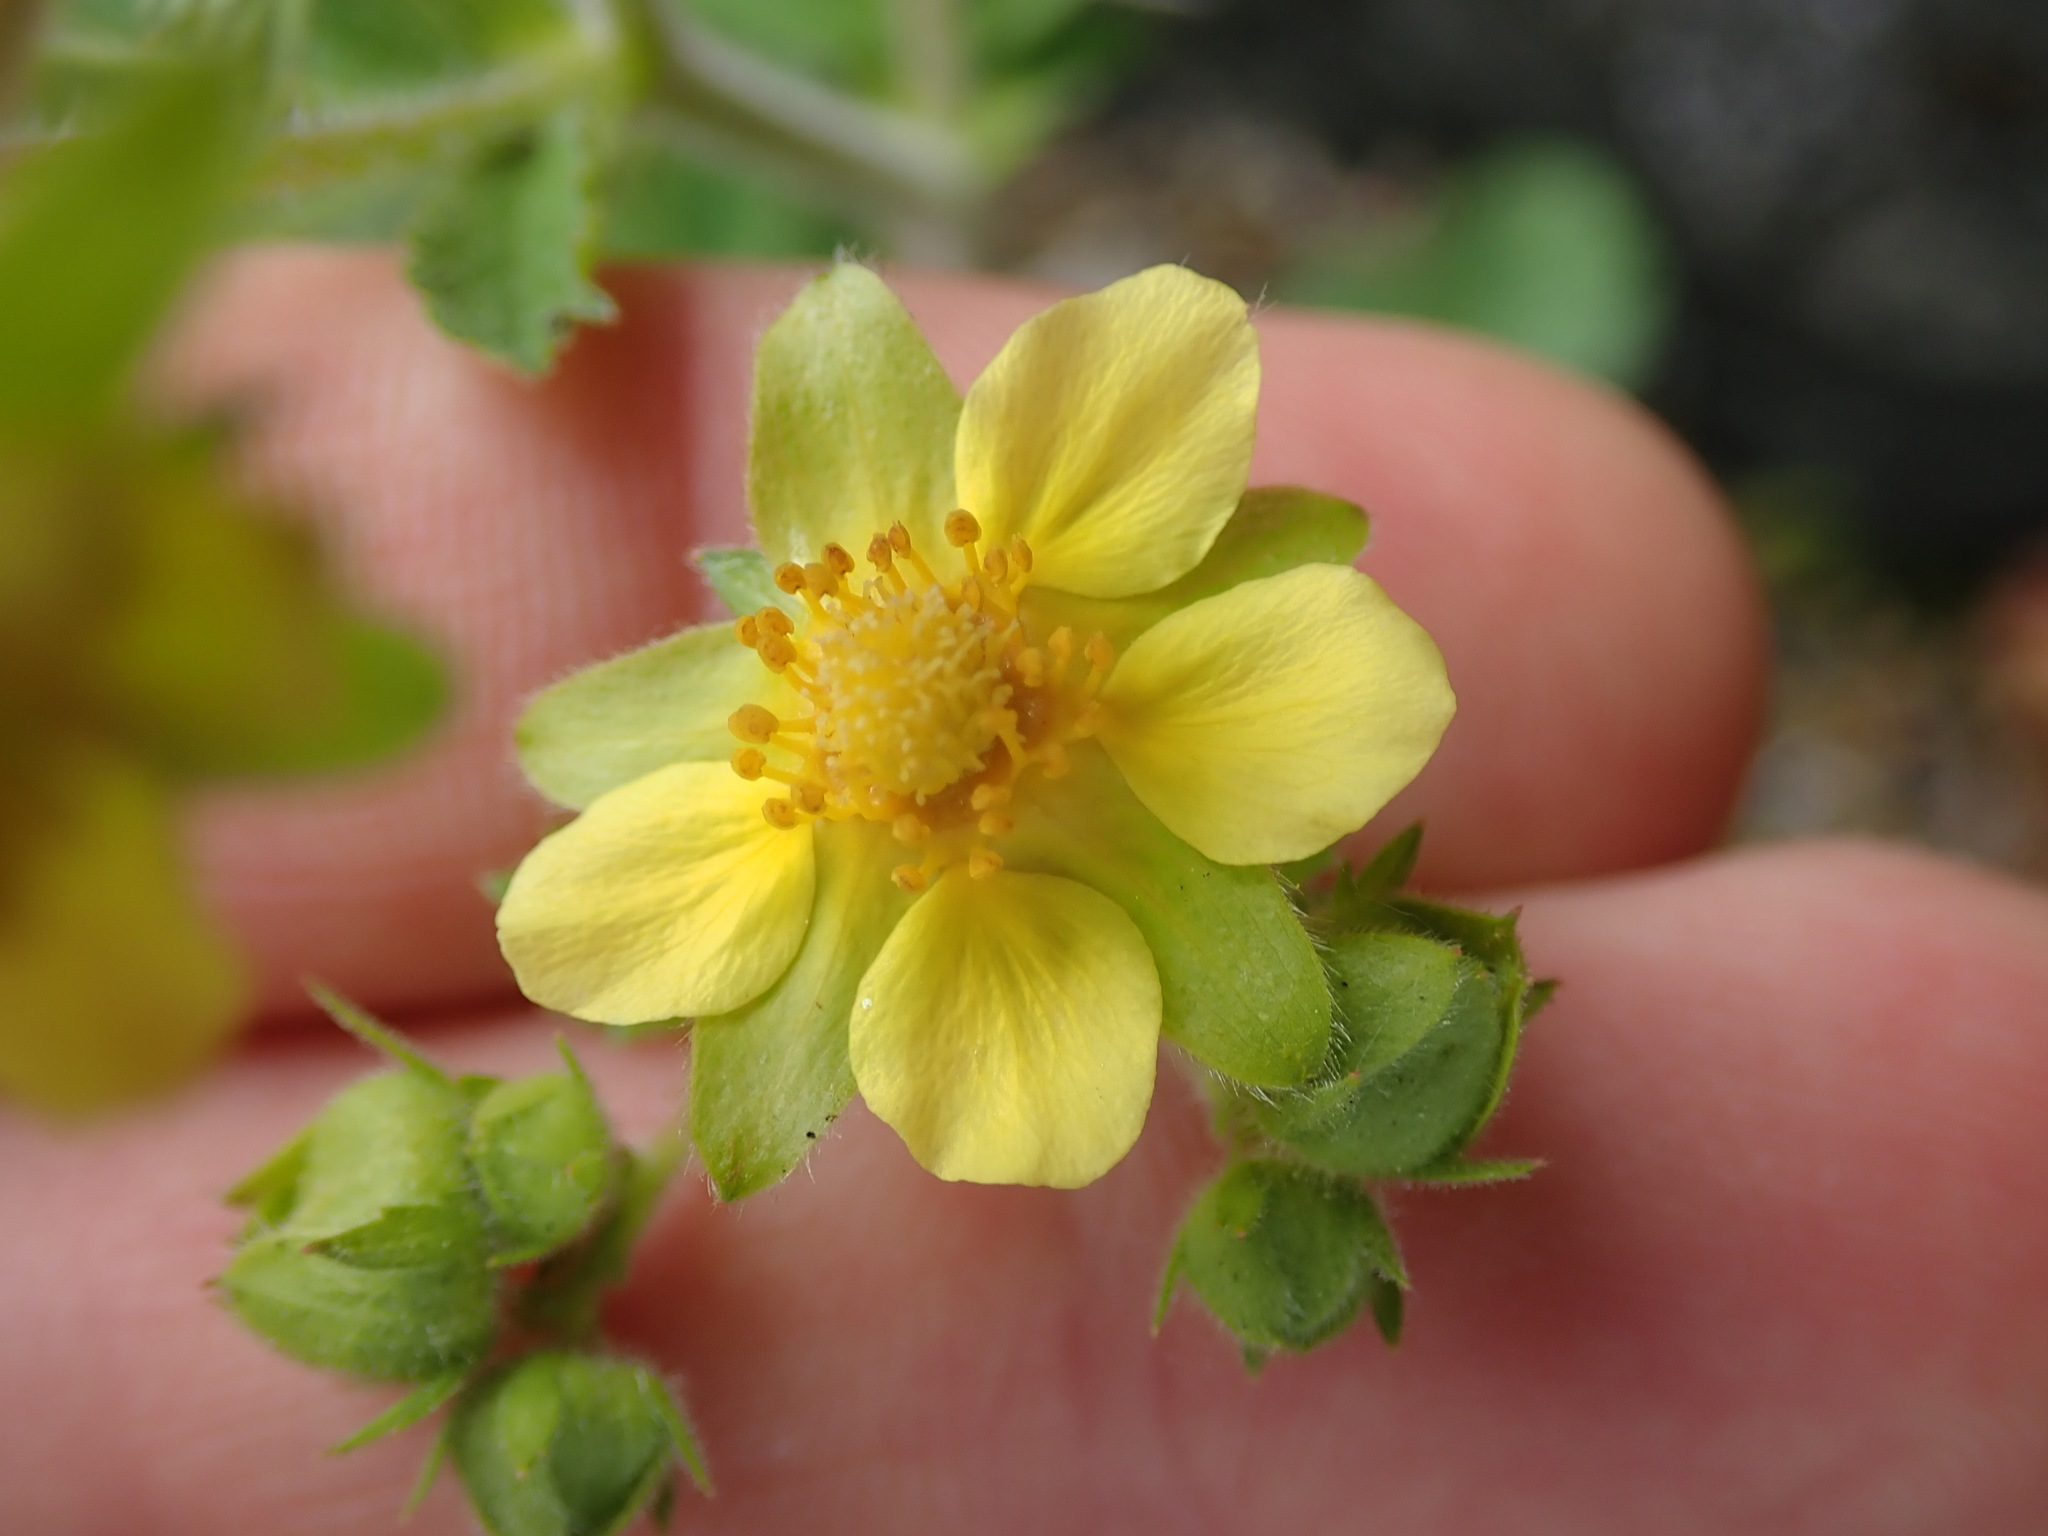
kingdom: Plantae
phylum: Tracheophyta
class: Magnoliopsida
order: Rosales
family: Rosaceae
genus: Drymocallis
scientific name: Drymocallis glandulosa
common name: Sticky cinquefoil
